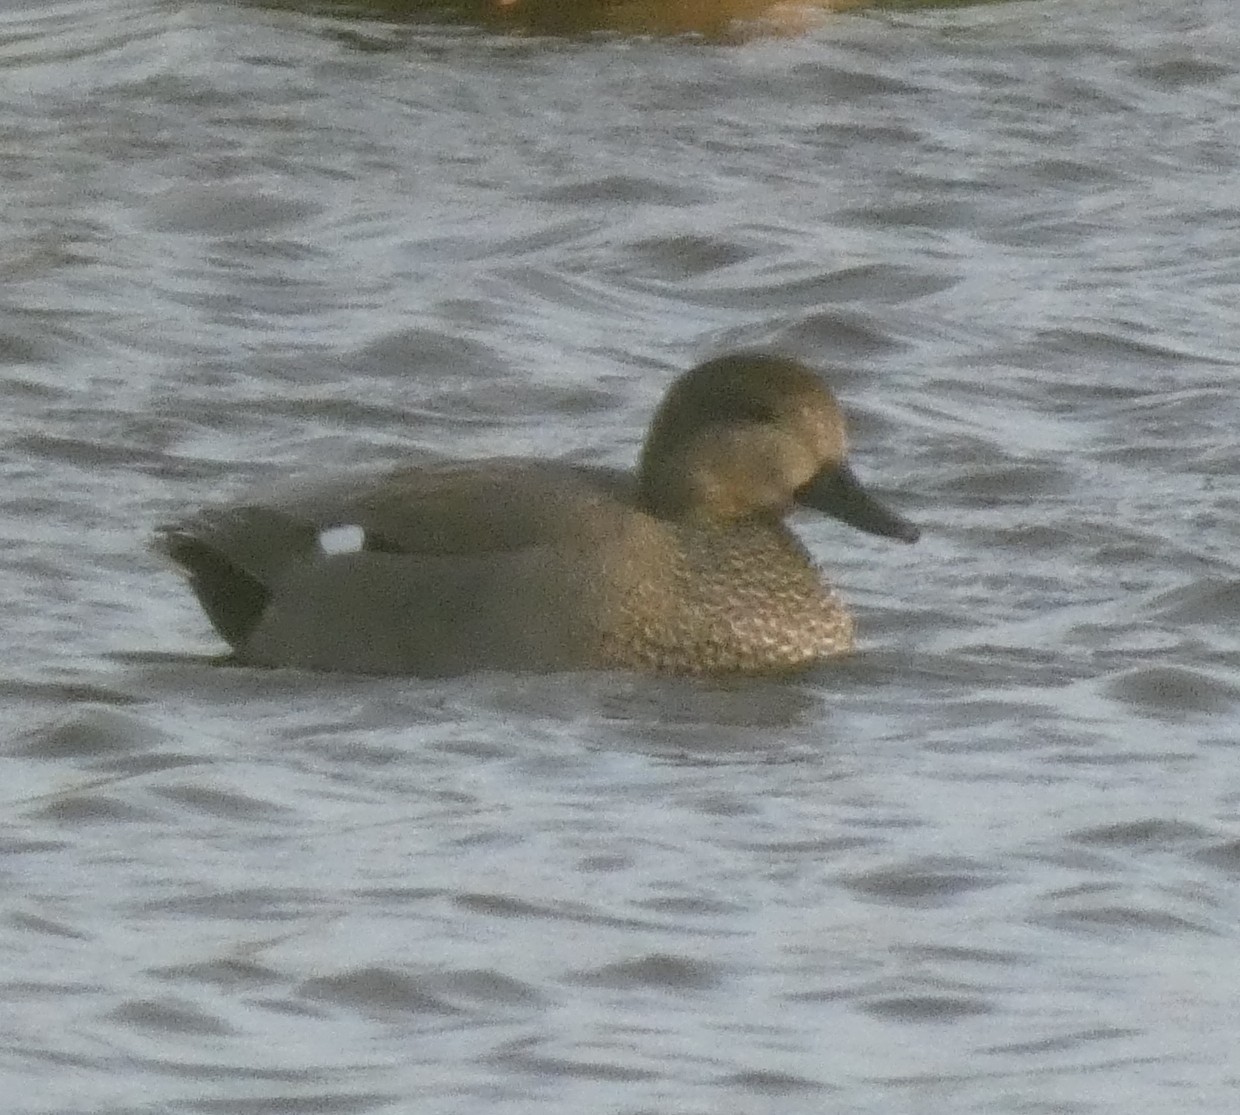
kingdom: Animalia
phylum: Chordata
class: Aves
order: Anseriformes
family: Anatidae
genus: Mareca
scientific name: Mareca strepera
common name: Gadwall
